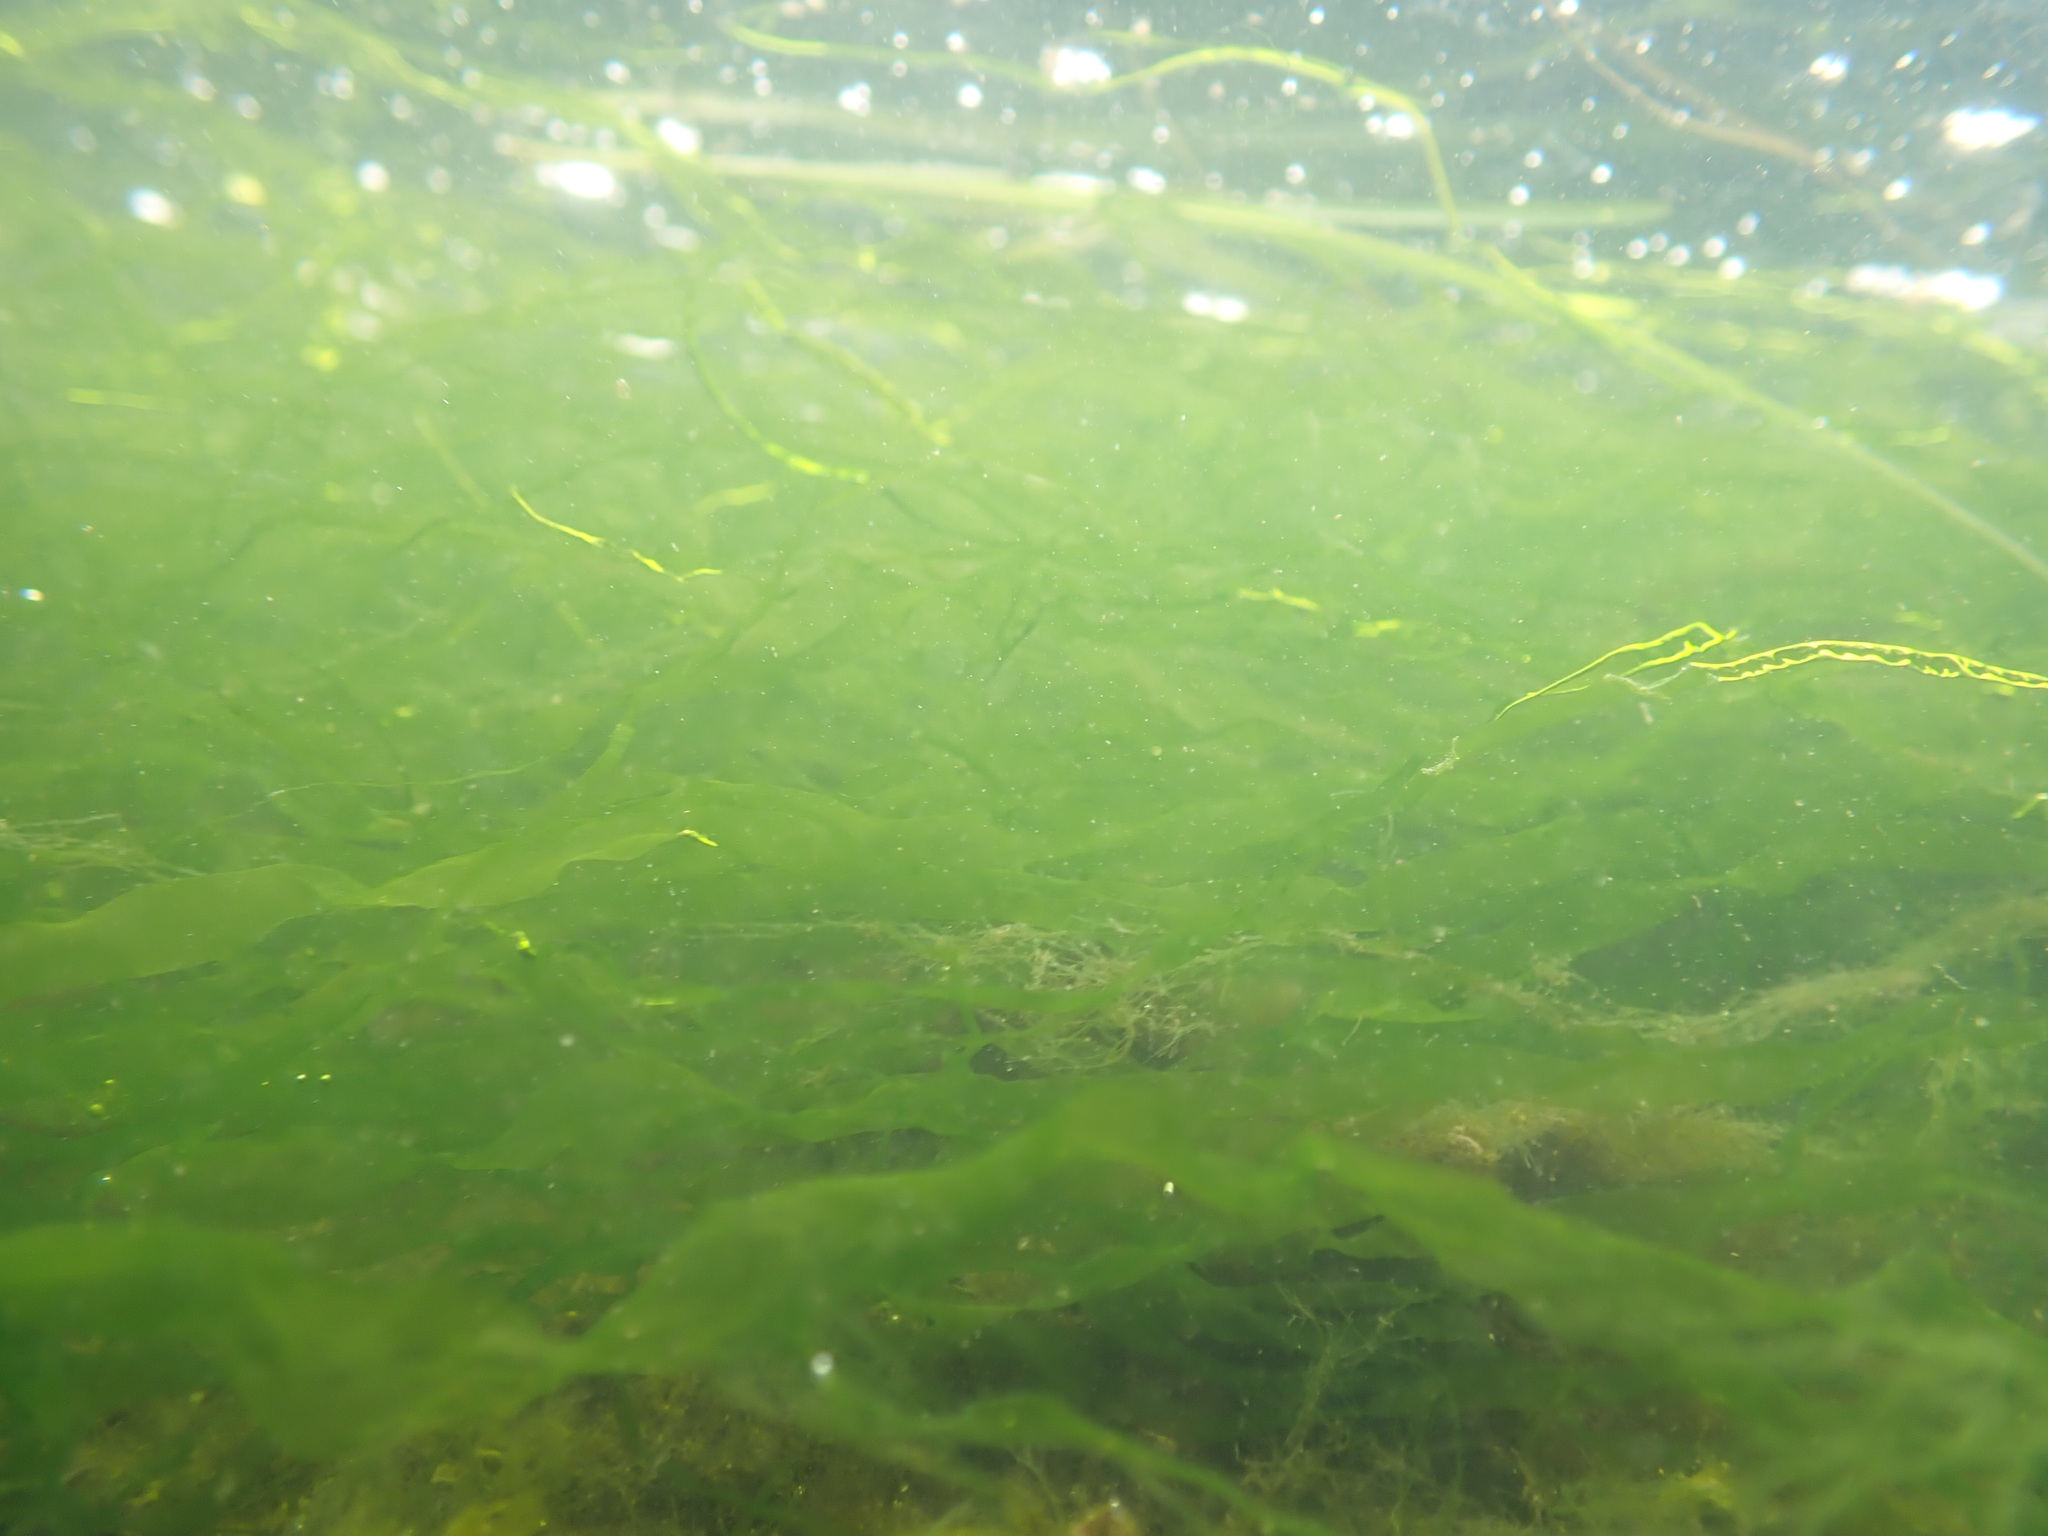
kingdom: Plantae
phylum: Chlorophyta
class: Ulvophyceae
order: Ulvales
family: Ulvaceae
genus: Ulva
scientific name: Ulva intestinalis
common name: Gut weed
